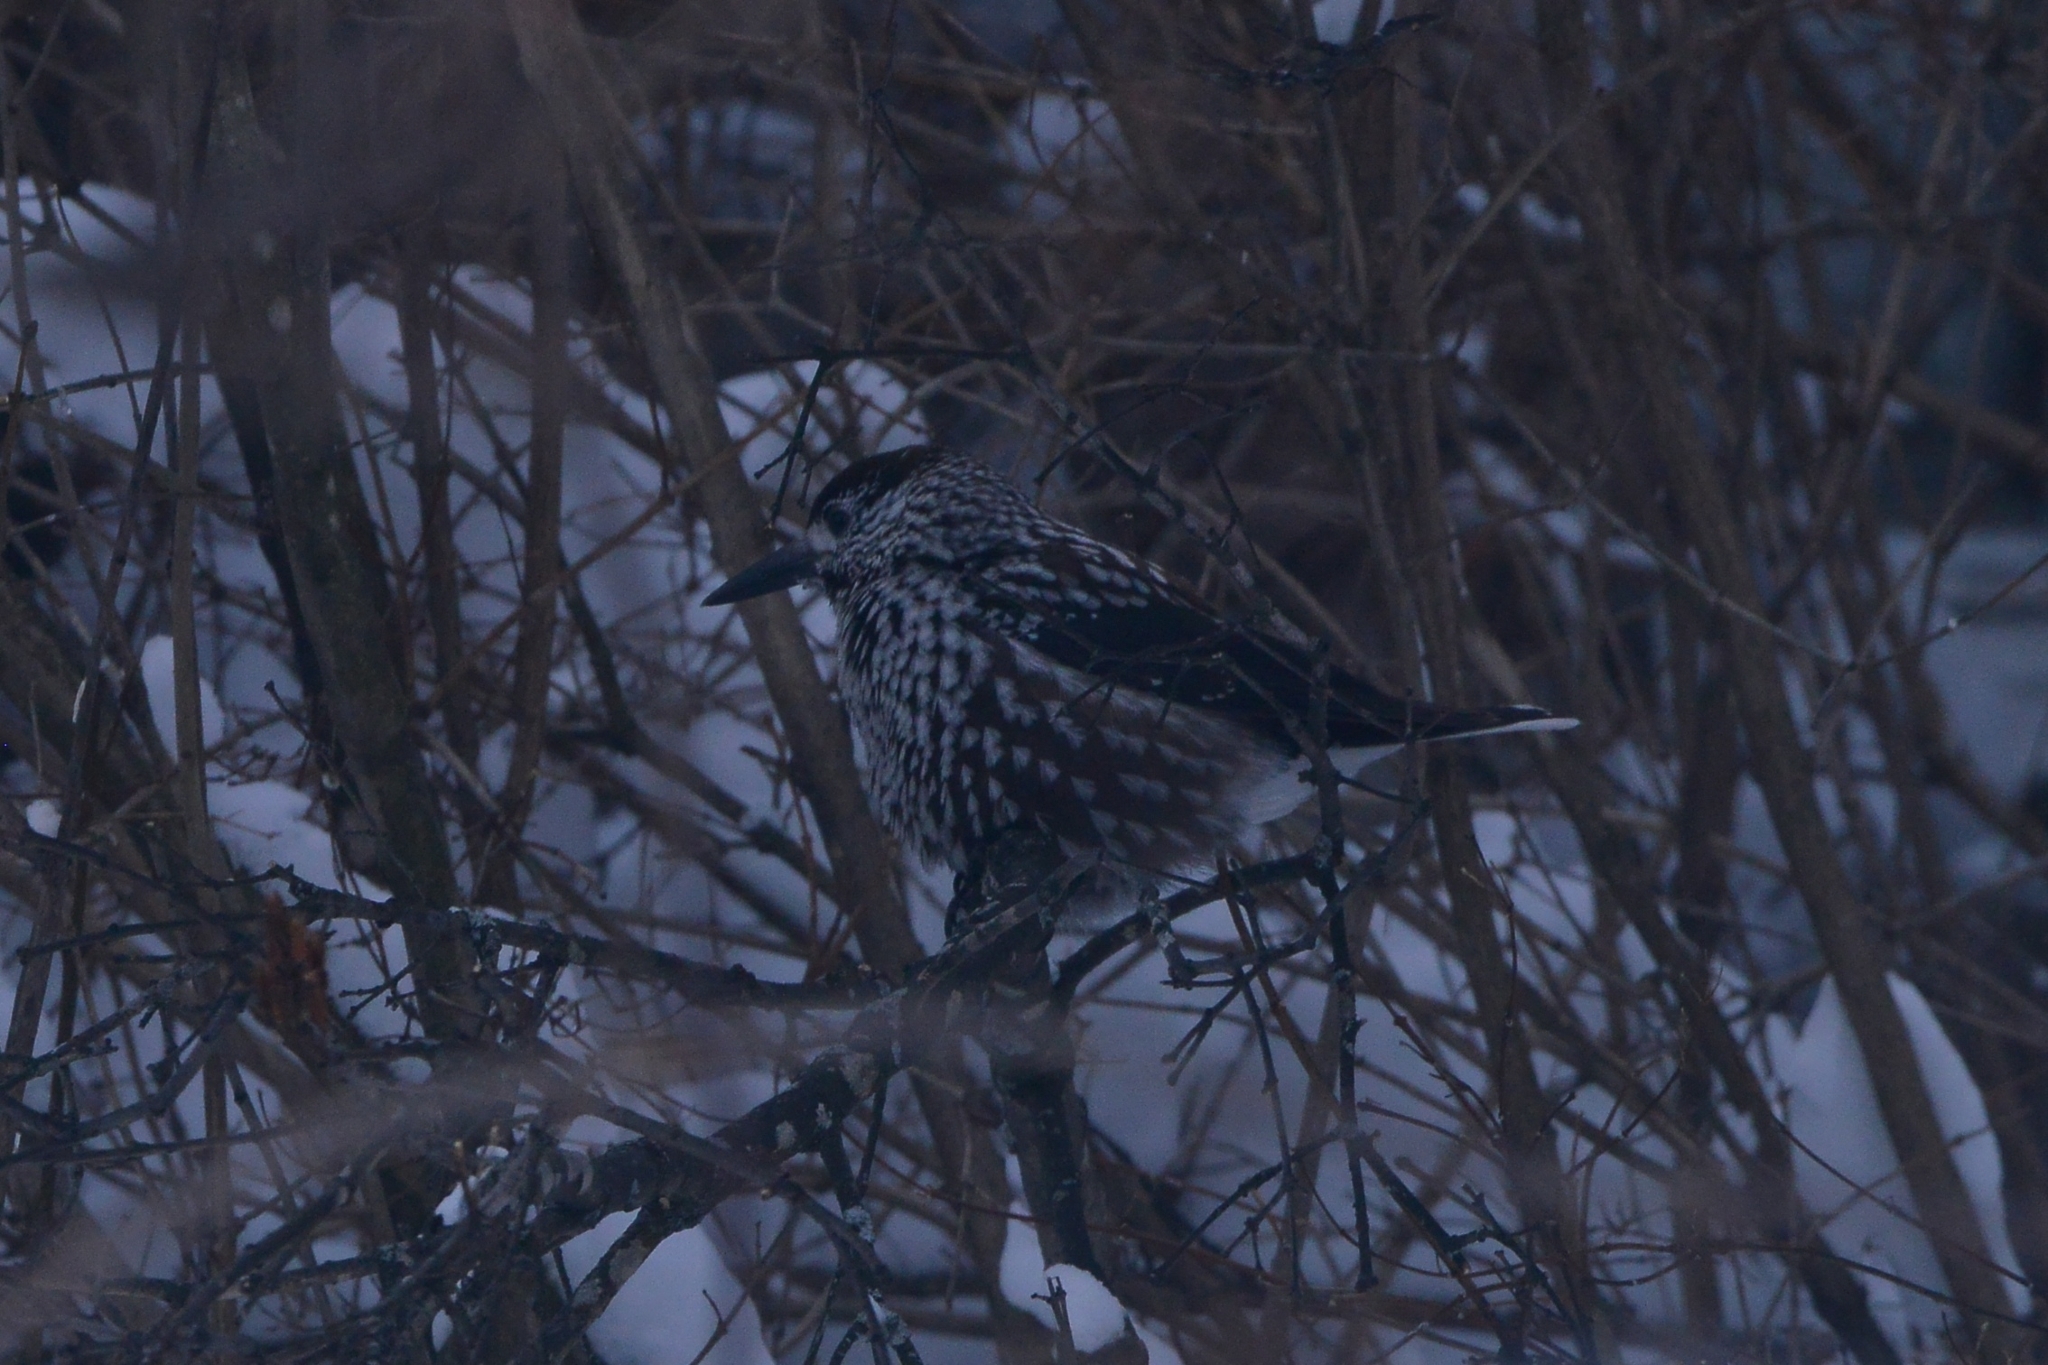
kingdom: Animalia
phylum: Chordata
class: Aves
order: Passeriformes
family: Corvidae
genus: Nucifraga
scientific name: Nucifraga caryocatactes
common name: Spotted nutcracker
